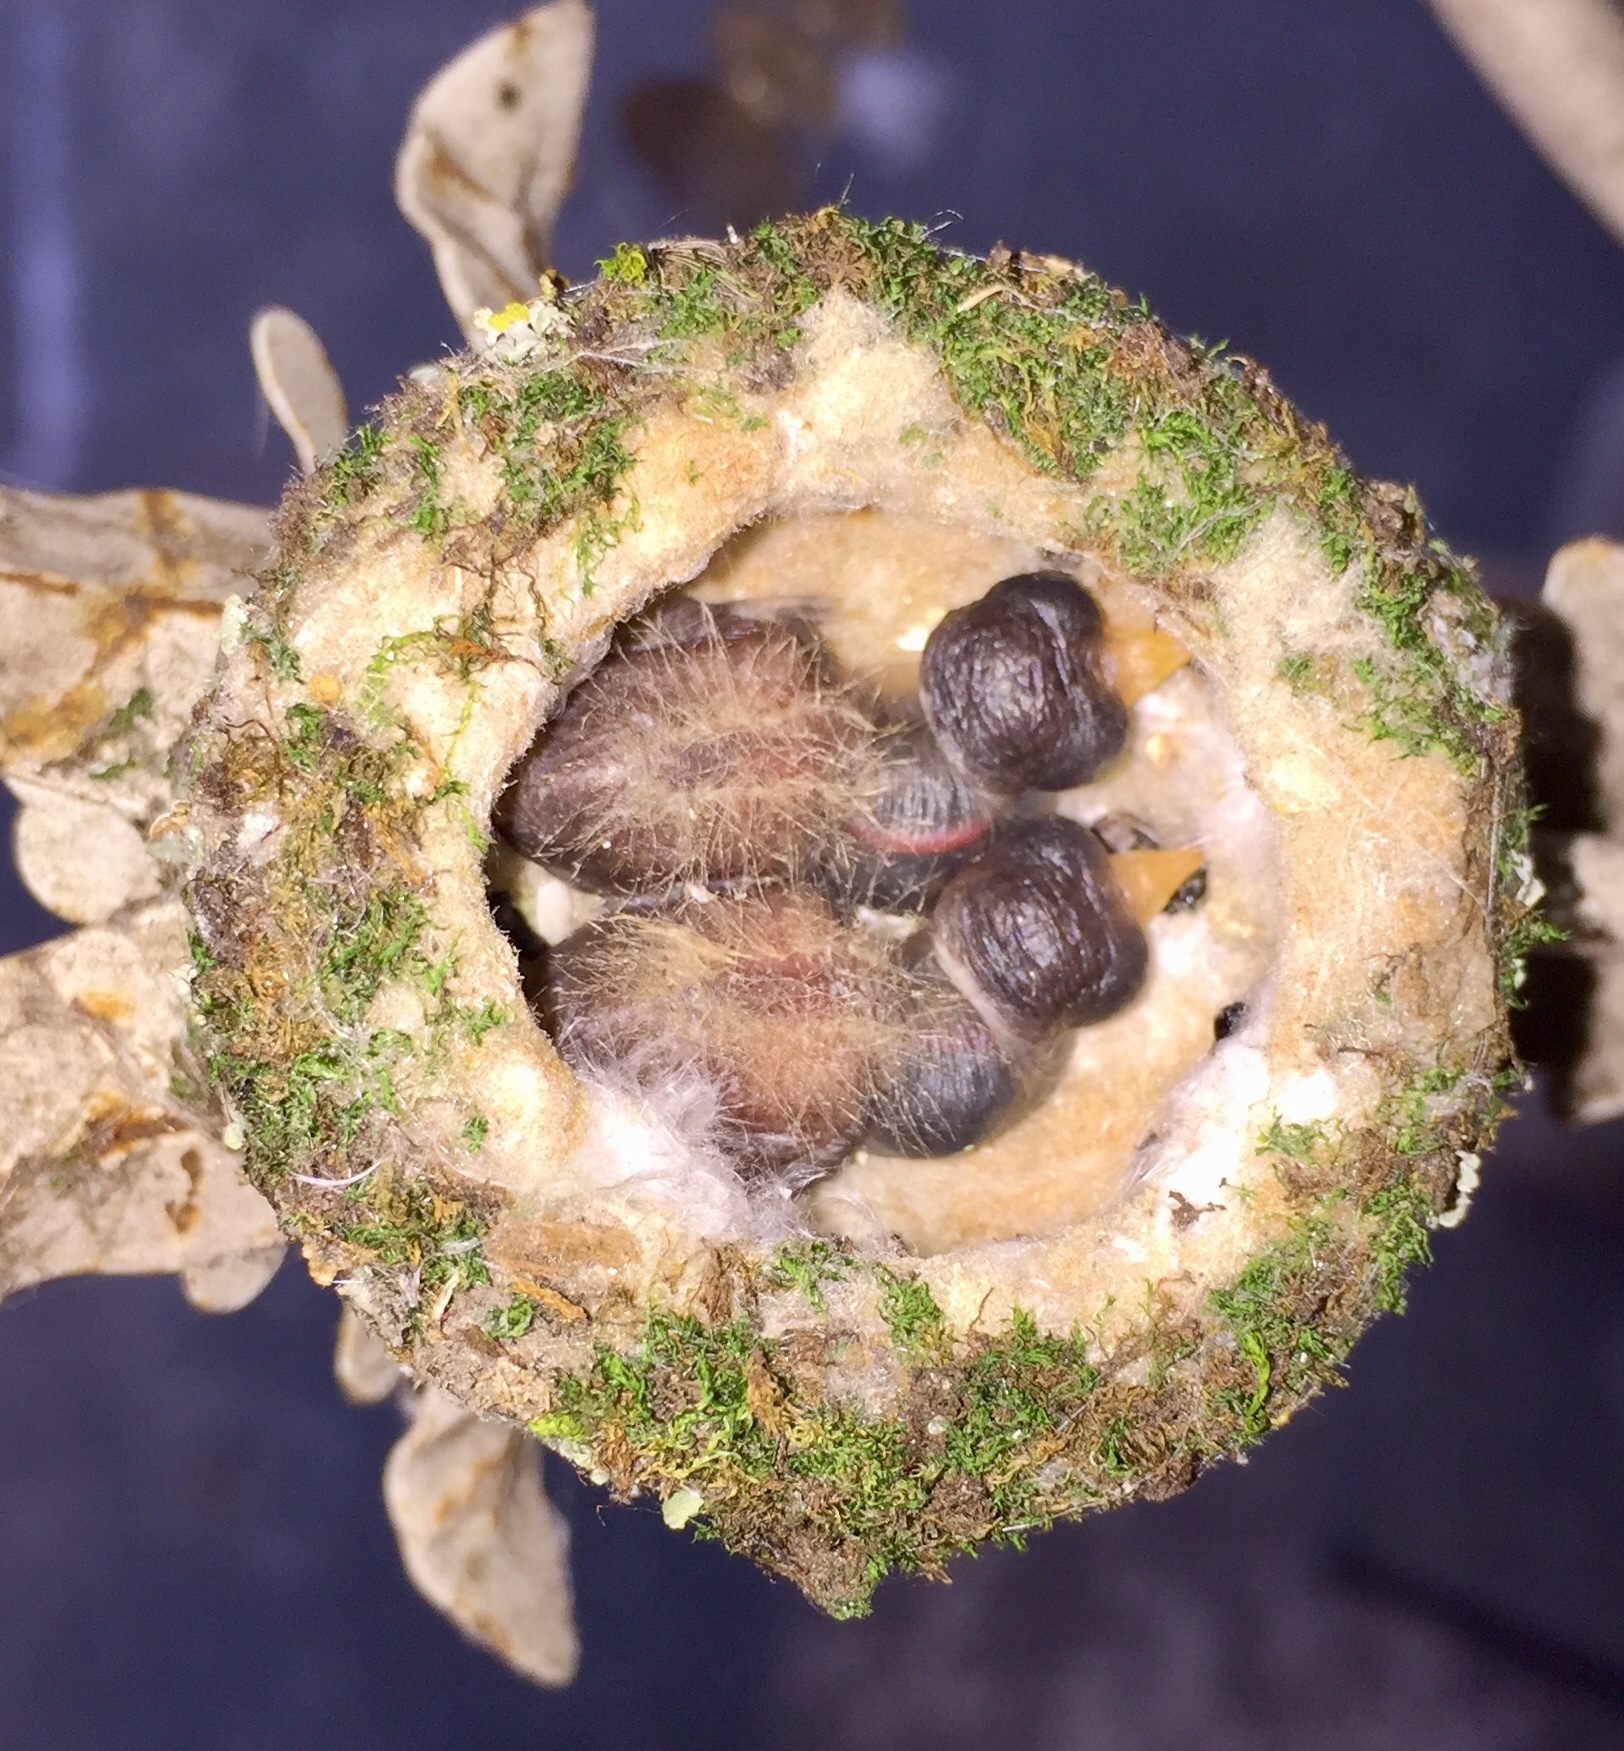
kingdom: Animalia
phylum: Chordata
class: Aves
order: Apodiformes
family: Trochilidae
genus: Calypte
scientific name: Calypte anna
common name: Anna's hummingbird
